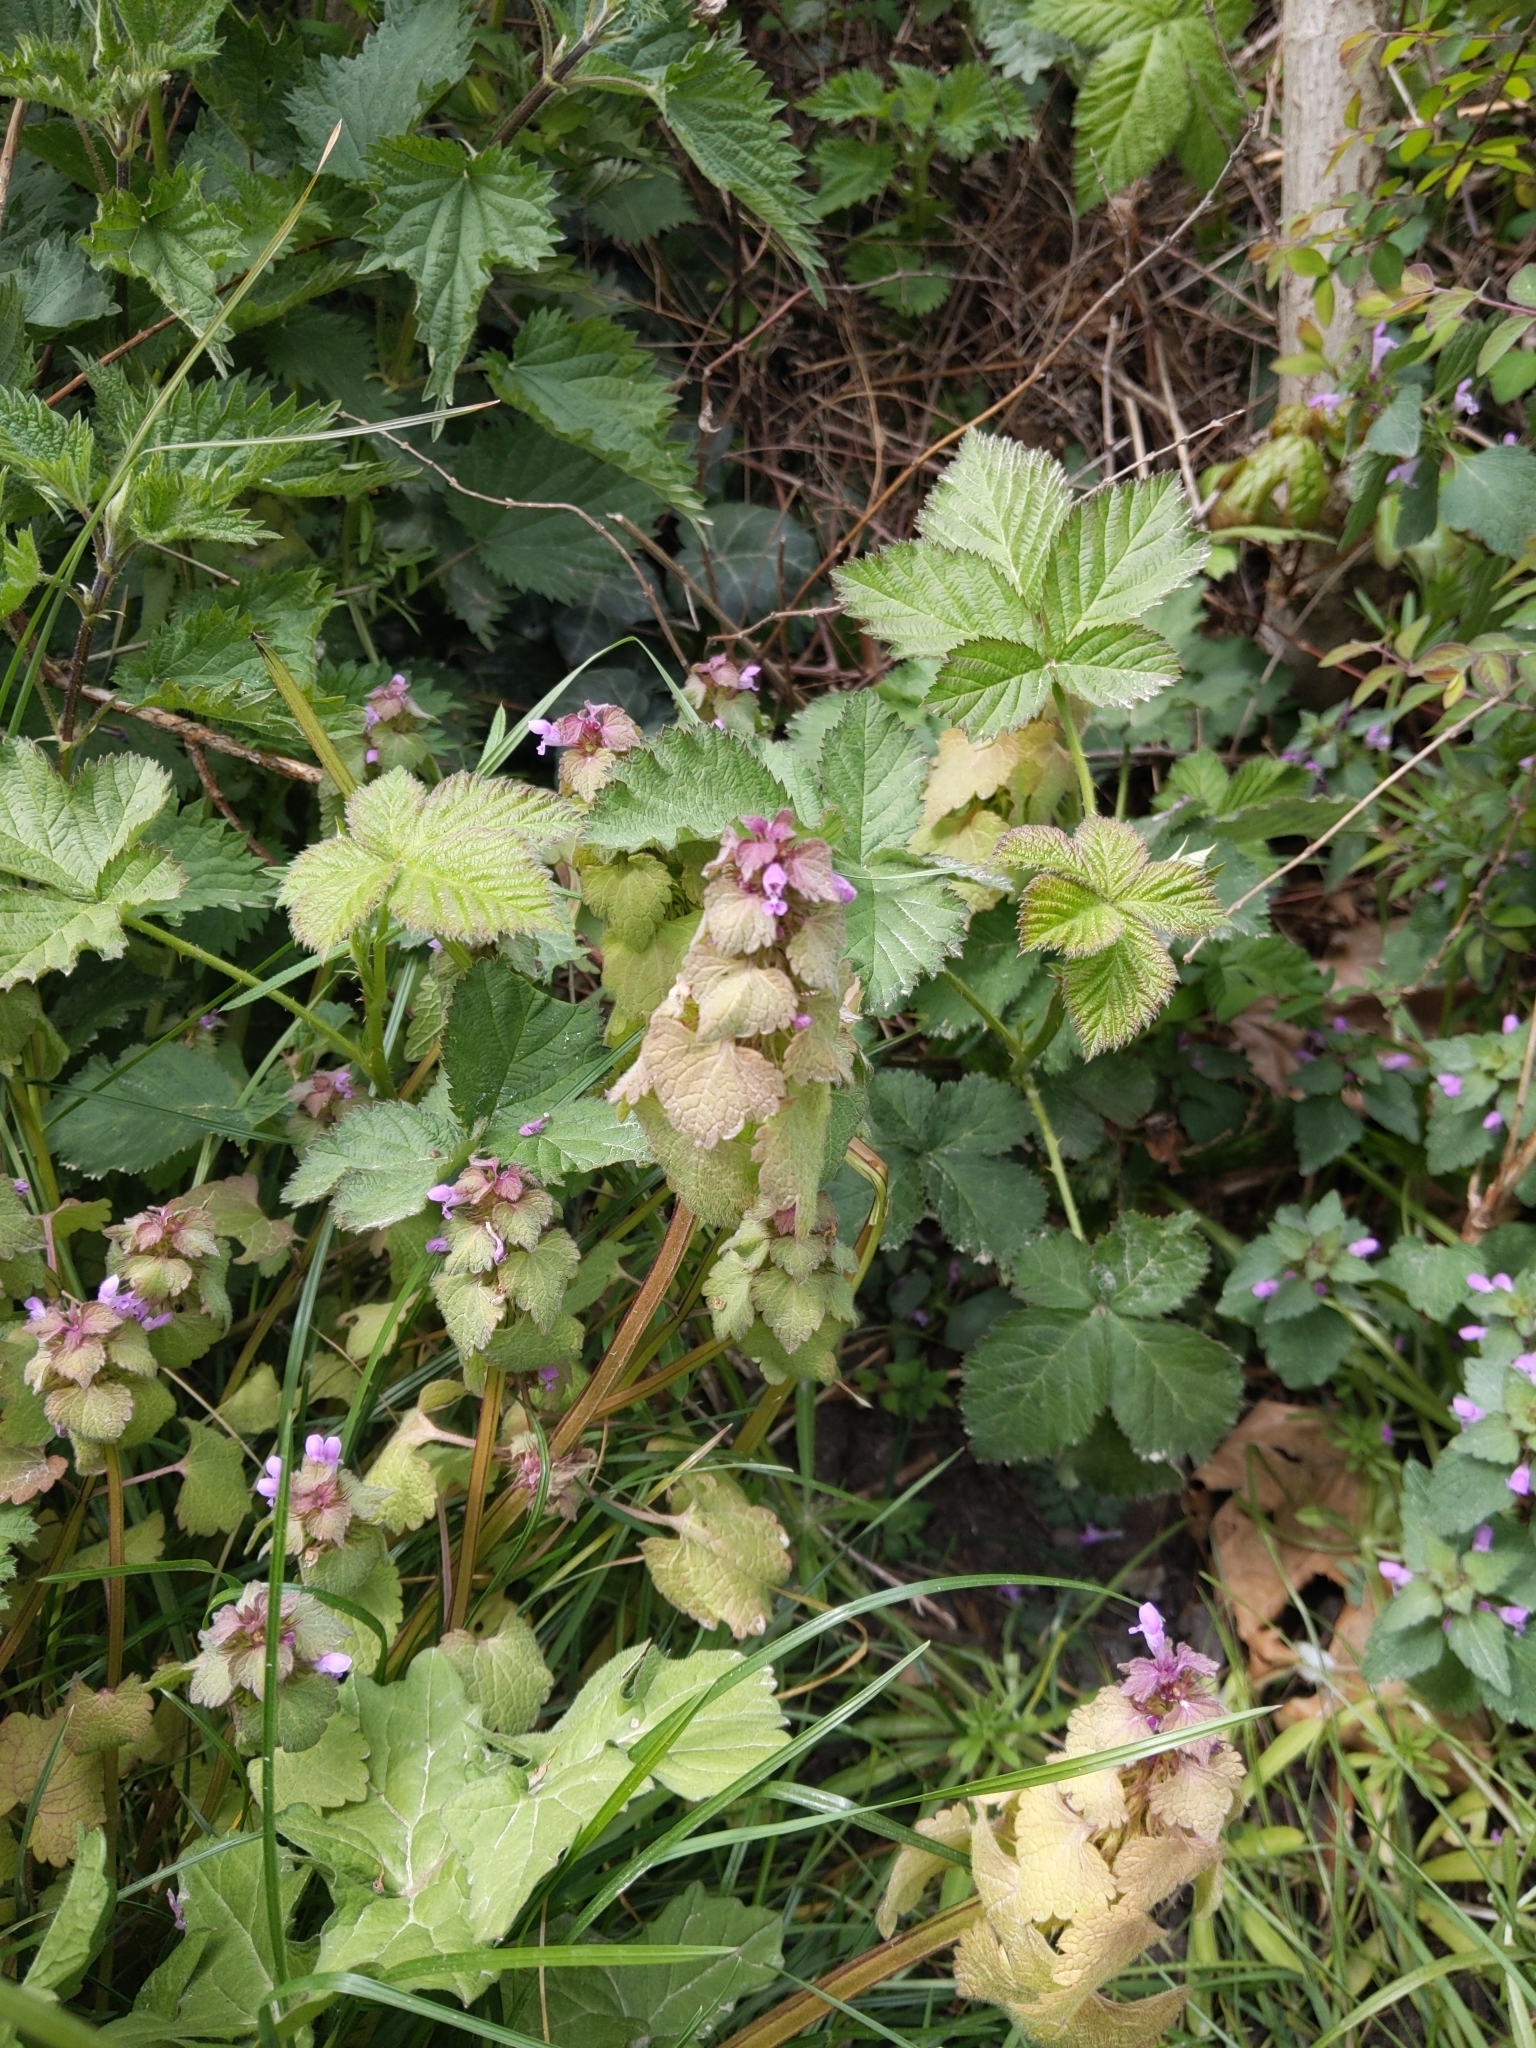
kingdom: Plantae
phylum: Tracheophyta
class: Magnoliopsida
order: Lamiales
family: Lamiaceae
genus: Lamium
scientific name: Lamium purpureum
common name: Red dead-nettle
